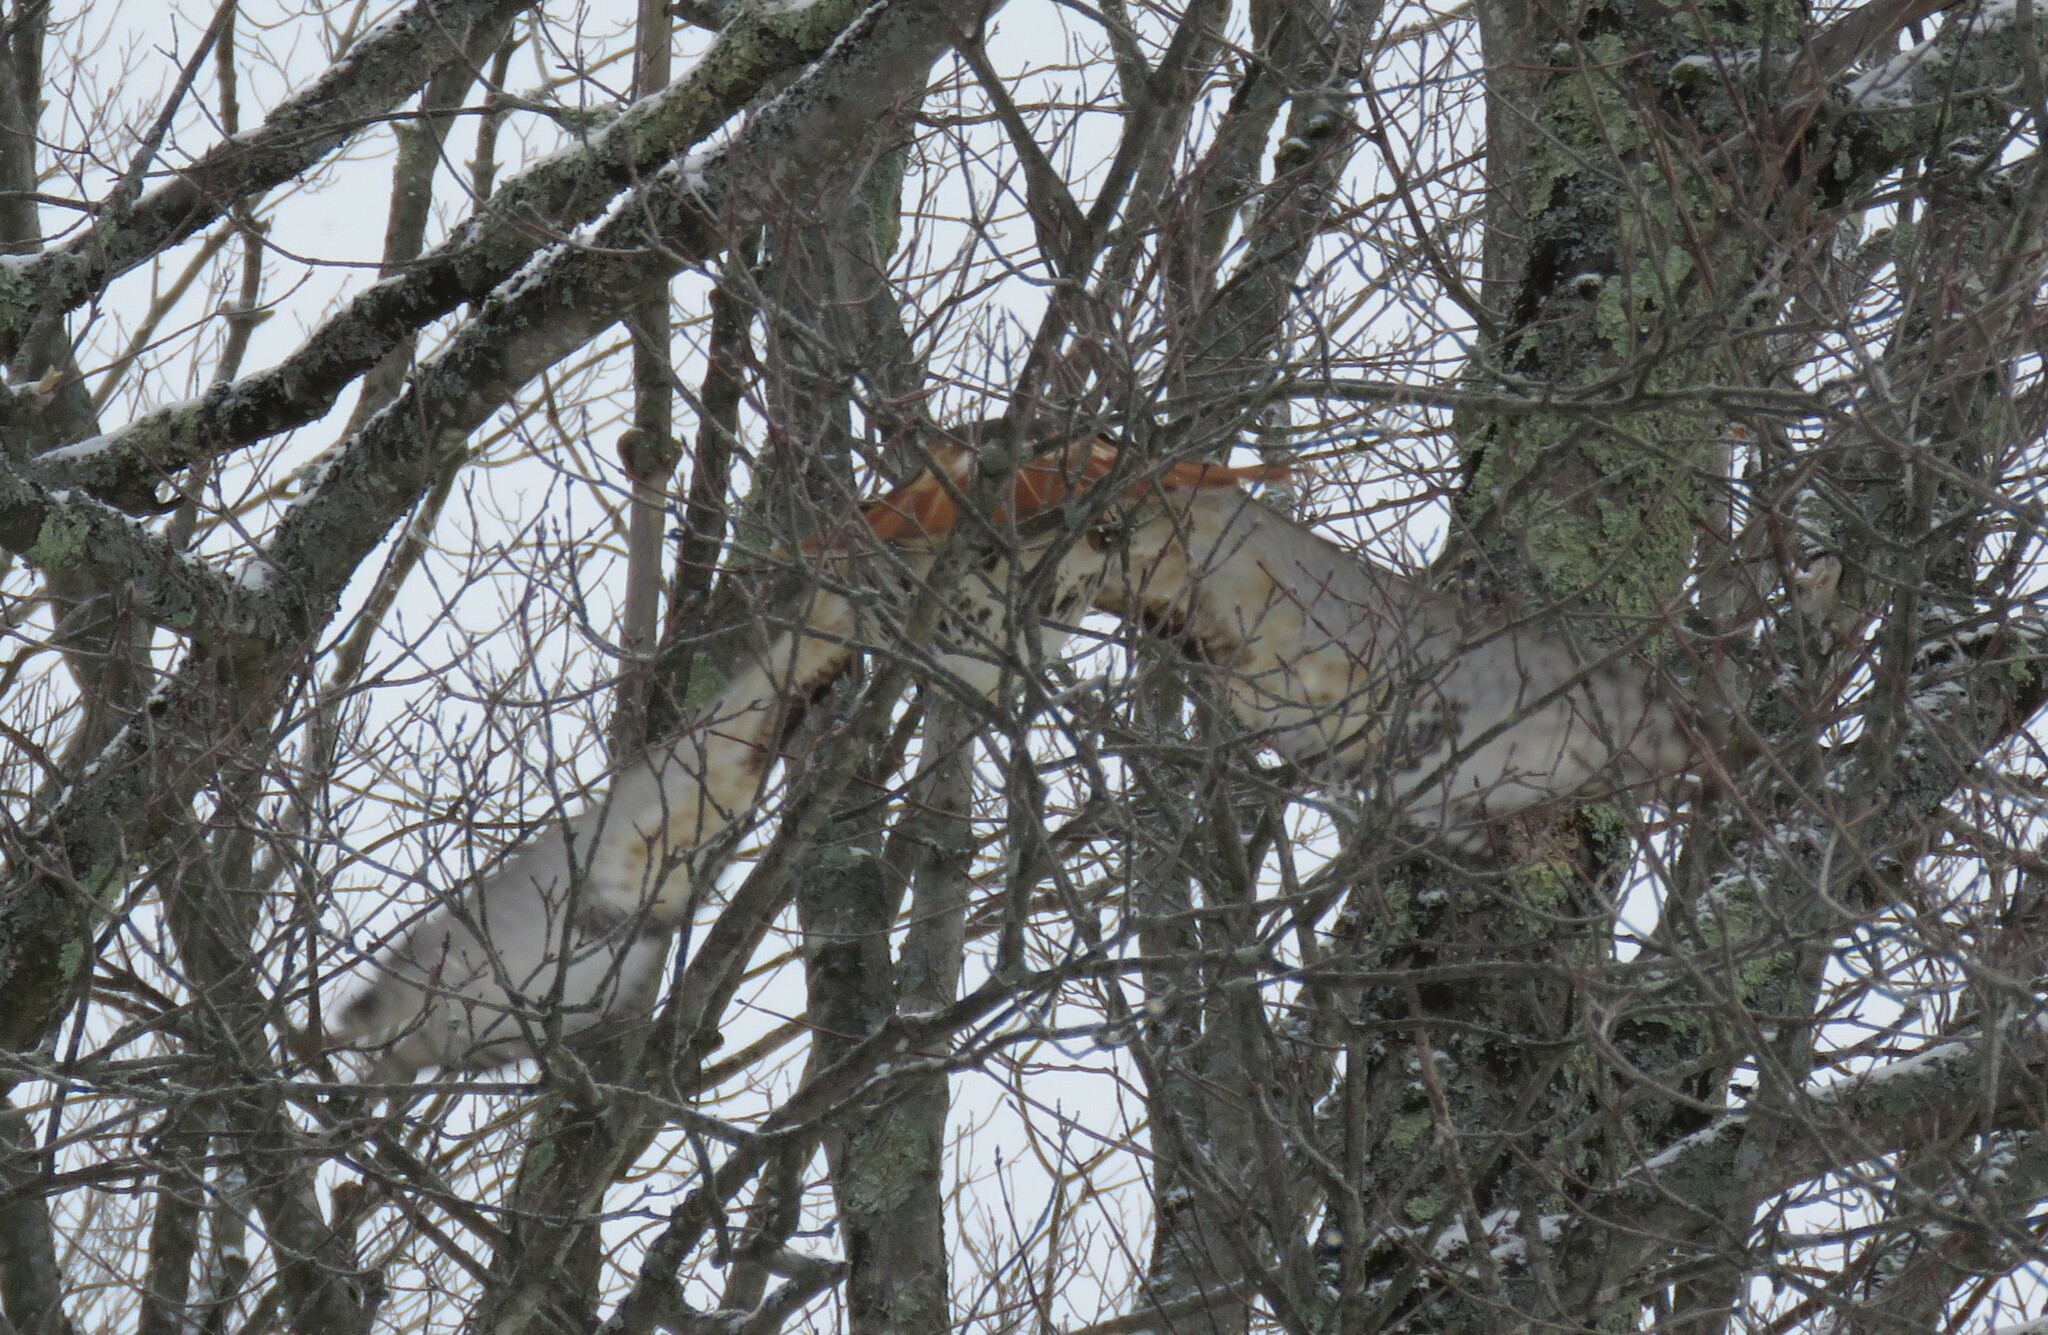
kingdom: Animalia
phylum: Chordata
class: Aves
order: Accipitriformes
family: Accipitridae
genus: Buteo
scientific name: Buteo jamaicensis
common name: Red-tailed hawk
